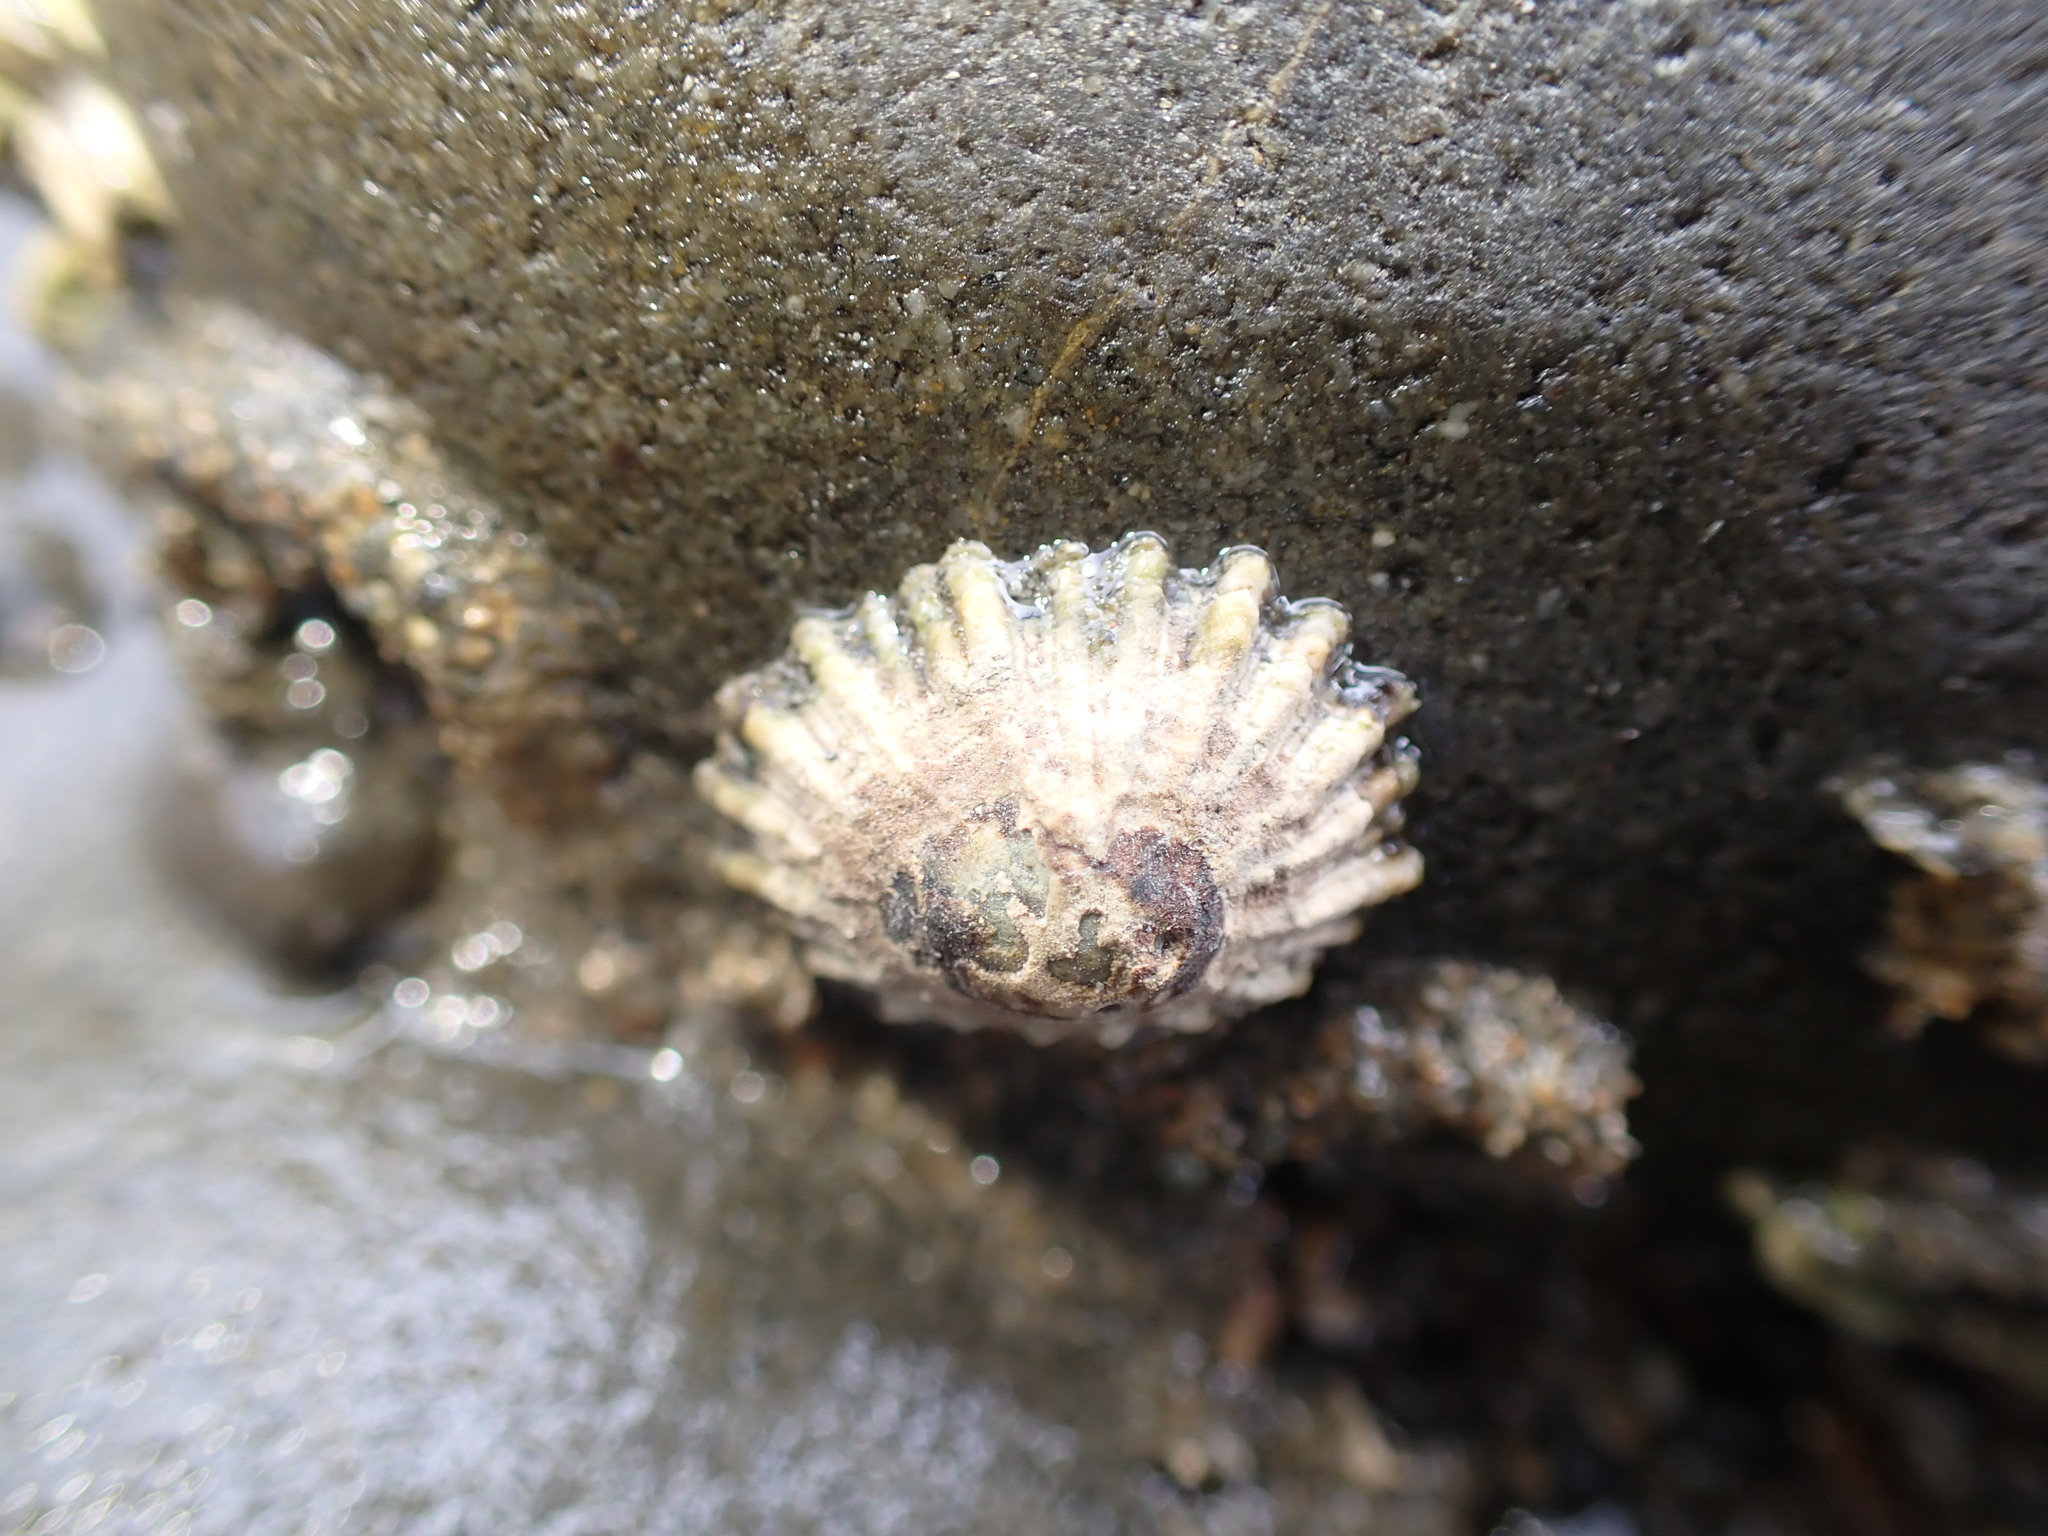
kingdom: Animalia
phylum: Mollusca
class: Gastropoda
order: Siphonariida
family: Siphonariidae
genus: Siphonaria
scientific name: Siphonaria australis
